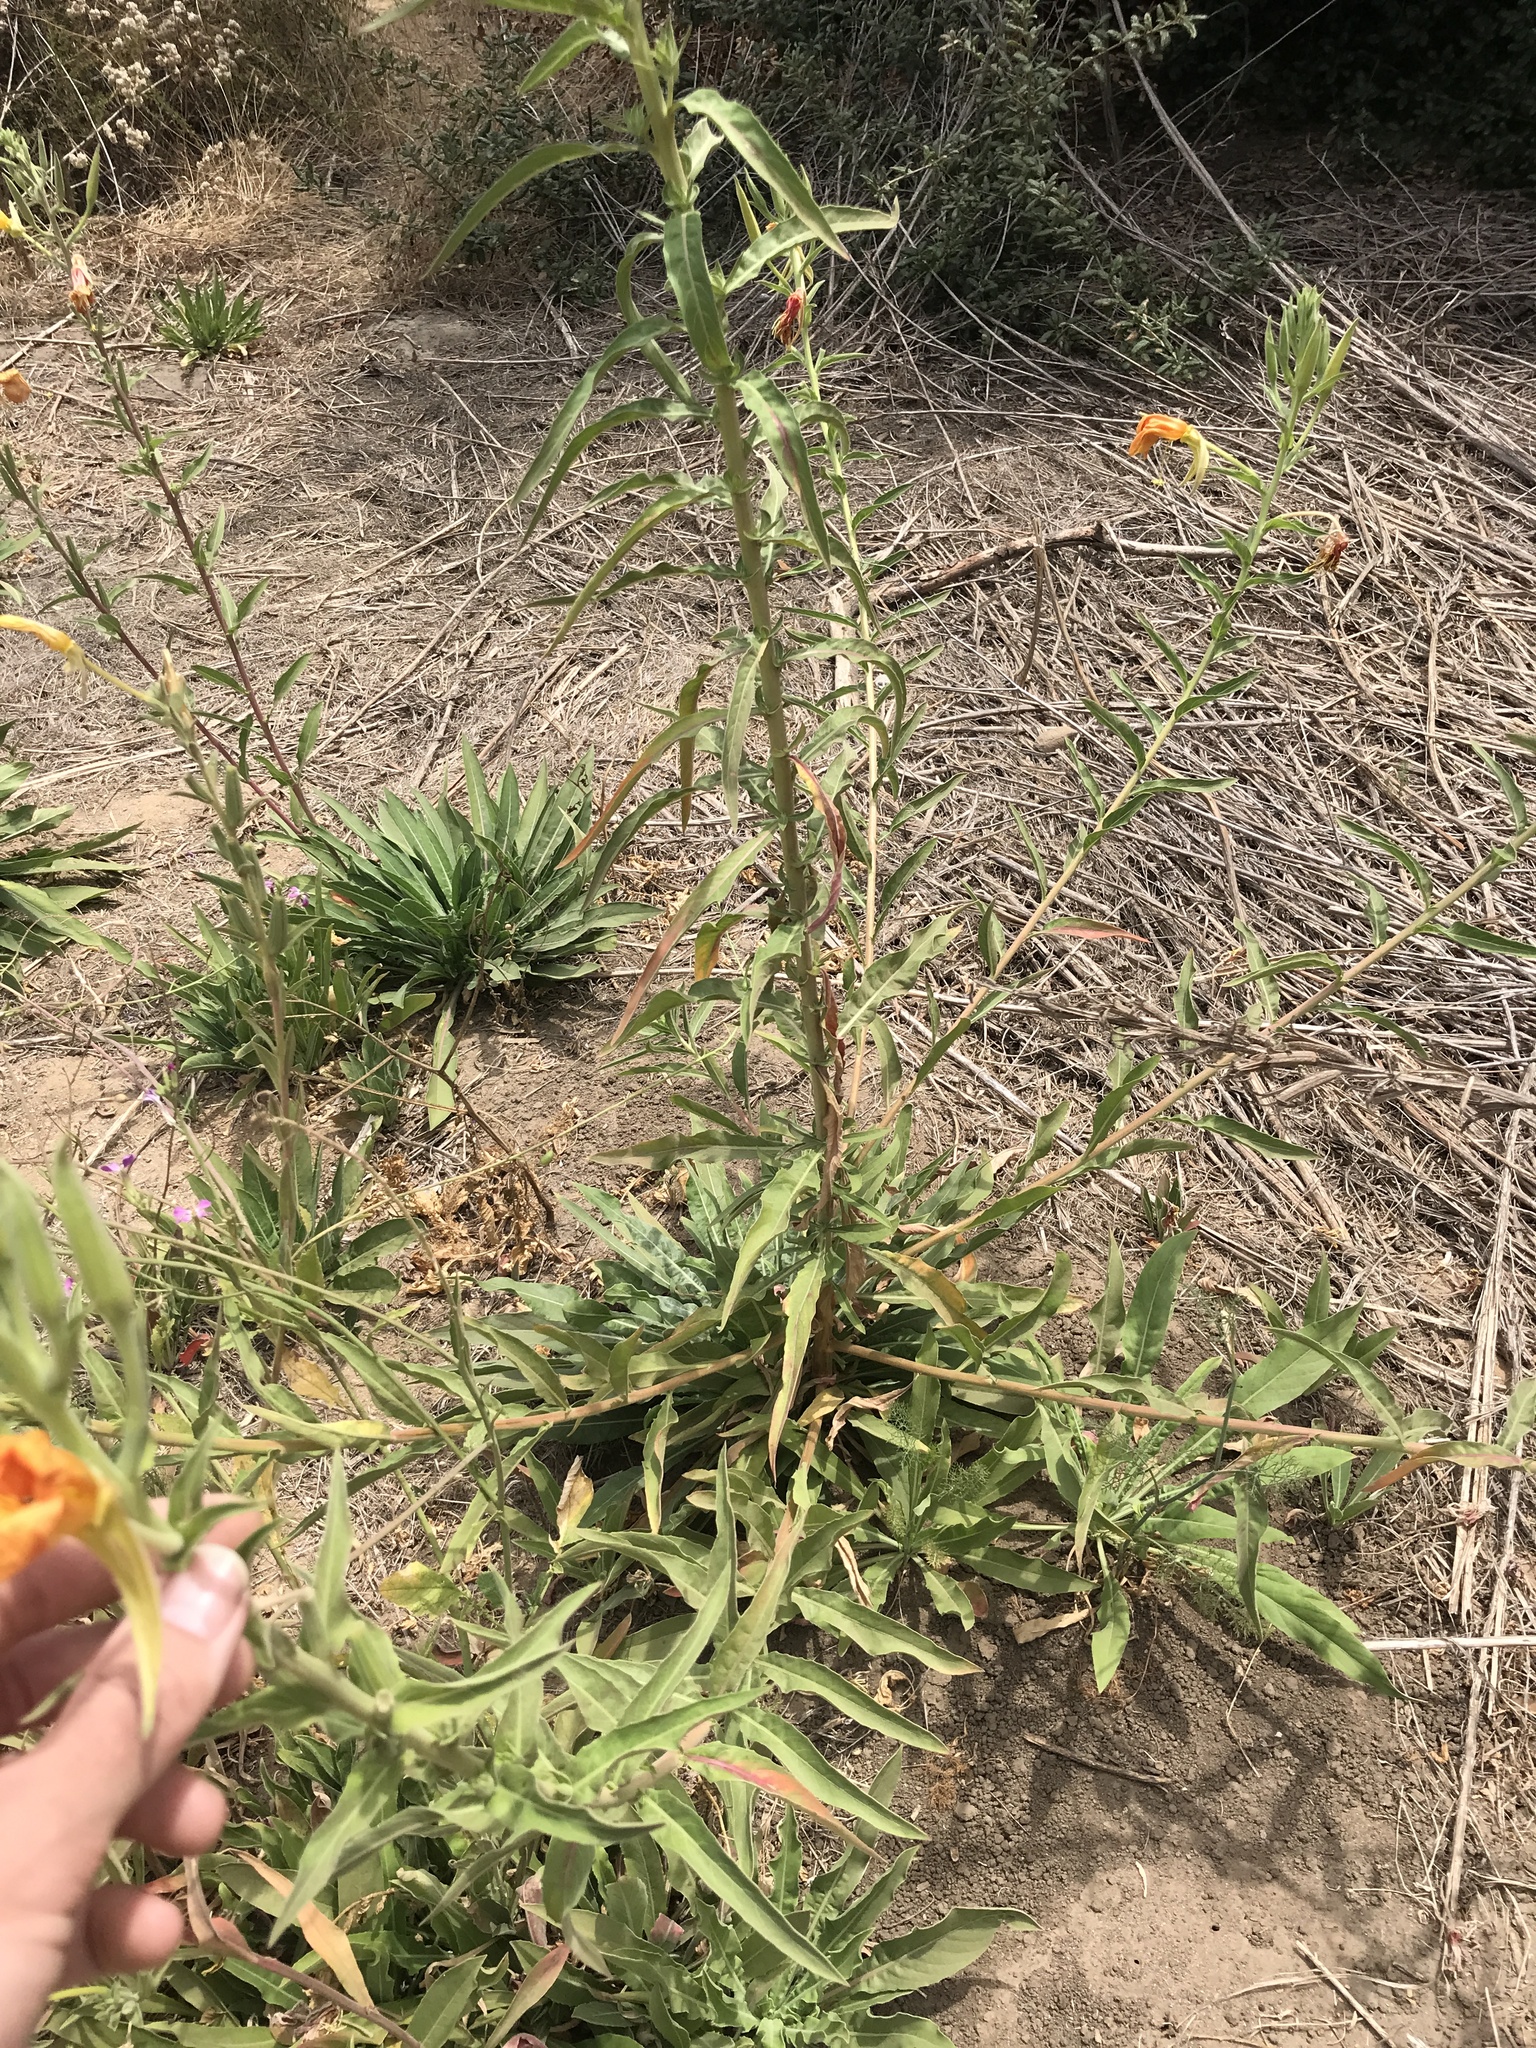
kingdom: Plantae
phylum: Tracheophyta
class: Magnoliopsida
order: Myrtales
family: Onagraceae
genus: Oenothera
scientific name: Oenothera elata
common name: Hooker's evening-primrose
